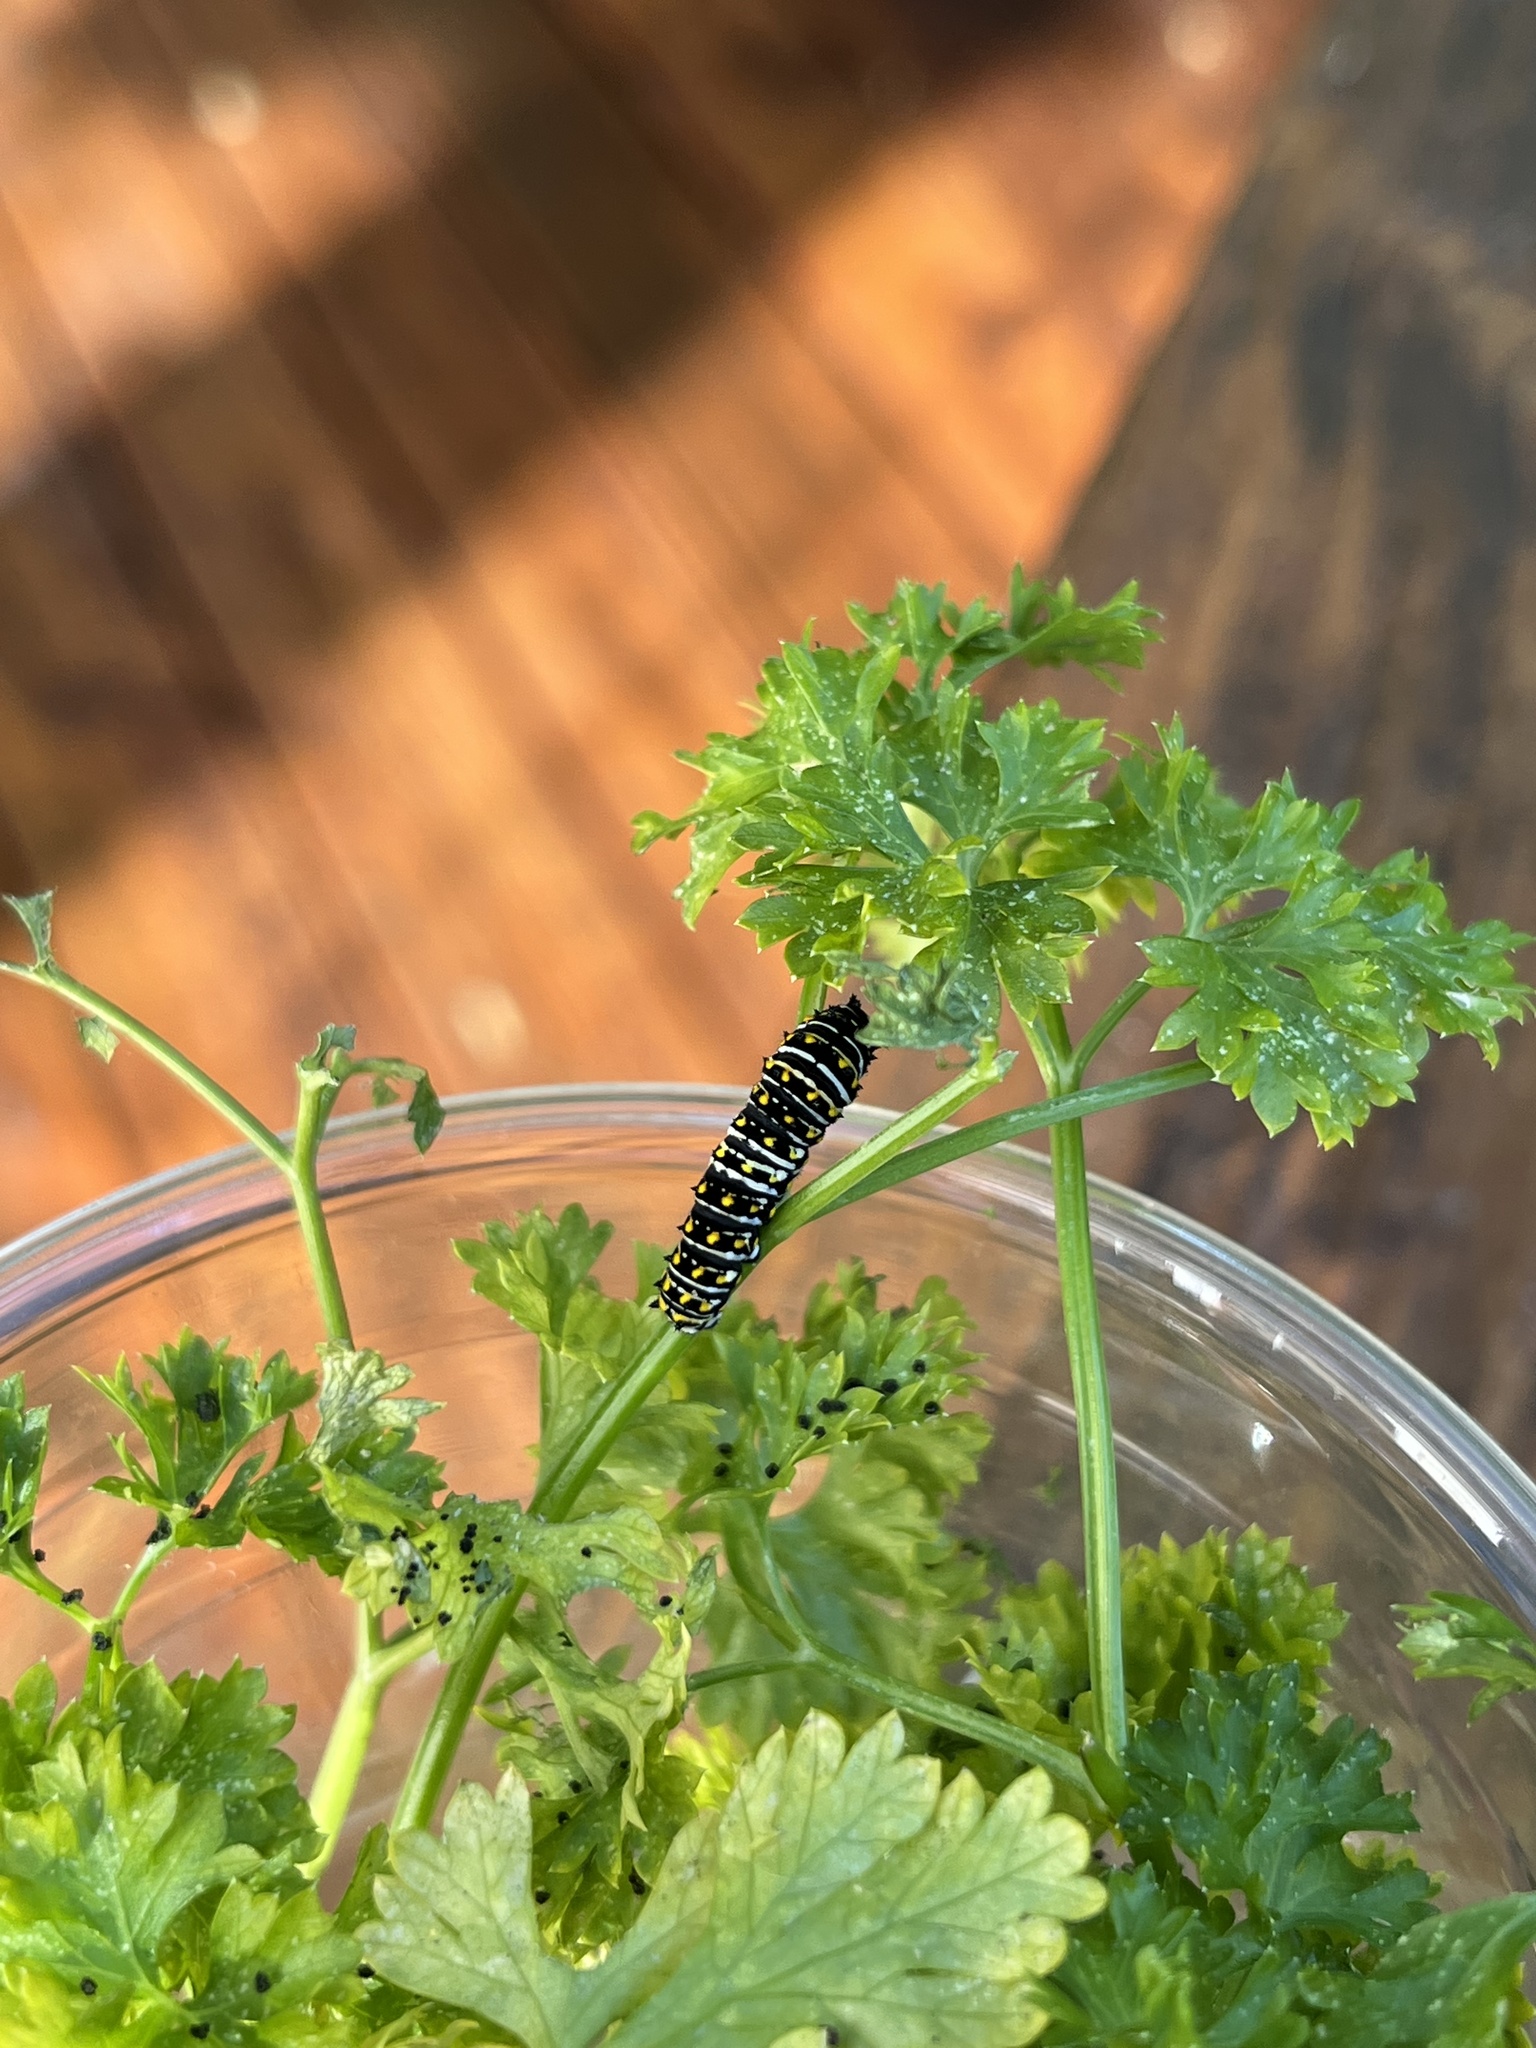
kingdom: Animalia
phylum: Arthropoda
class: Insecta
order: Lepidoptera
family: Papilionidae
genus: Papilio
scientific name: Papilio polyxenes
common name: Black swallowtail
